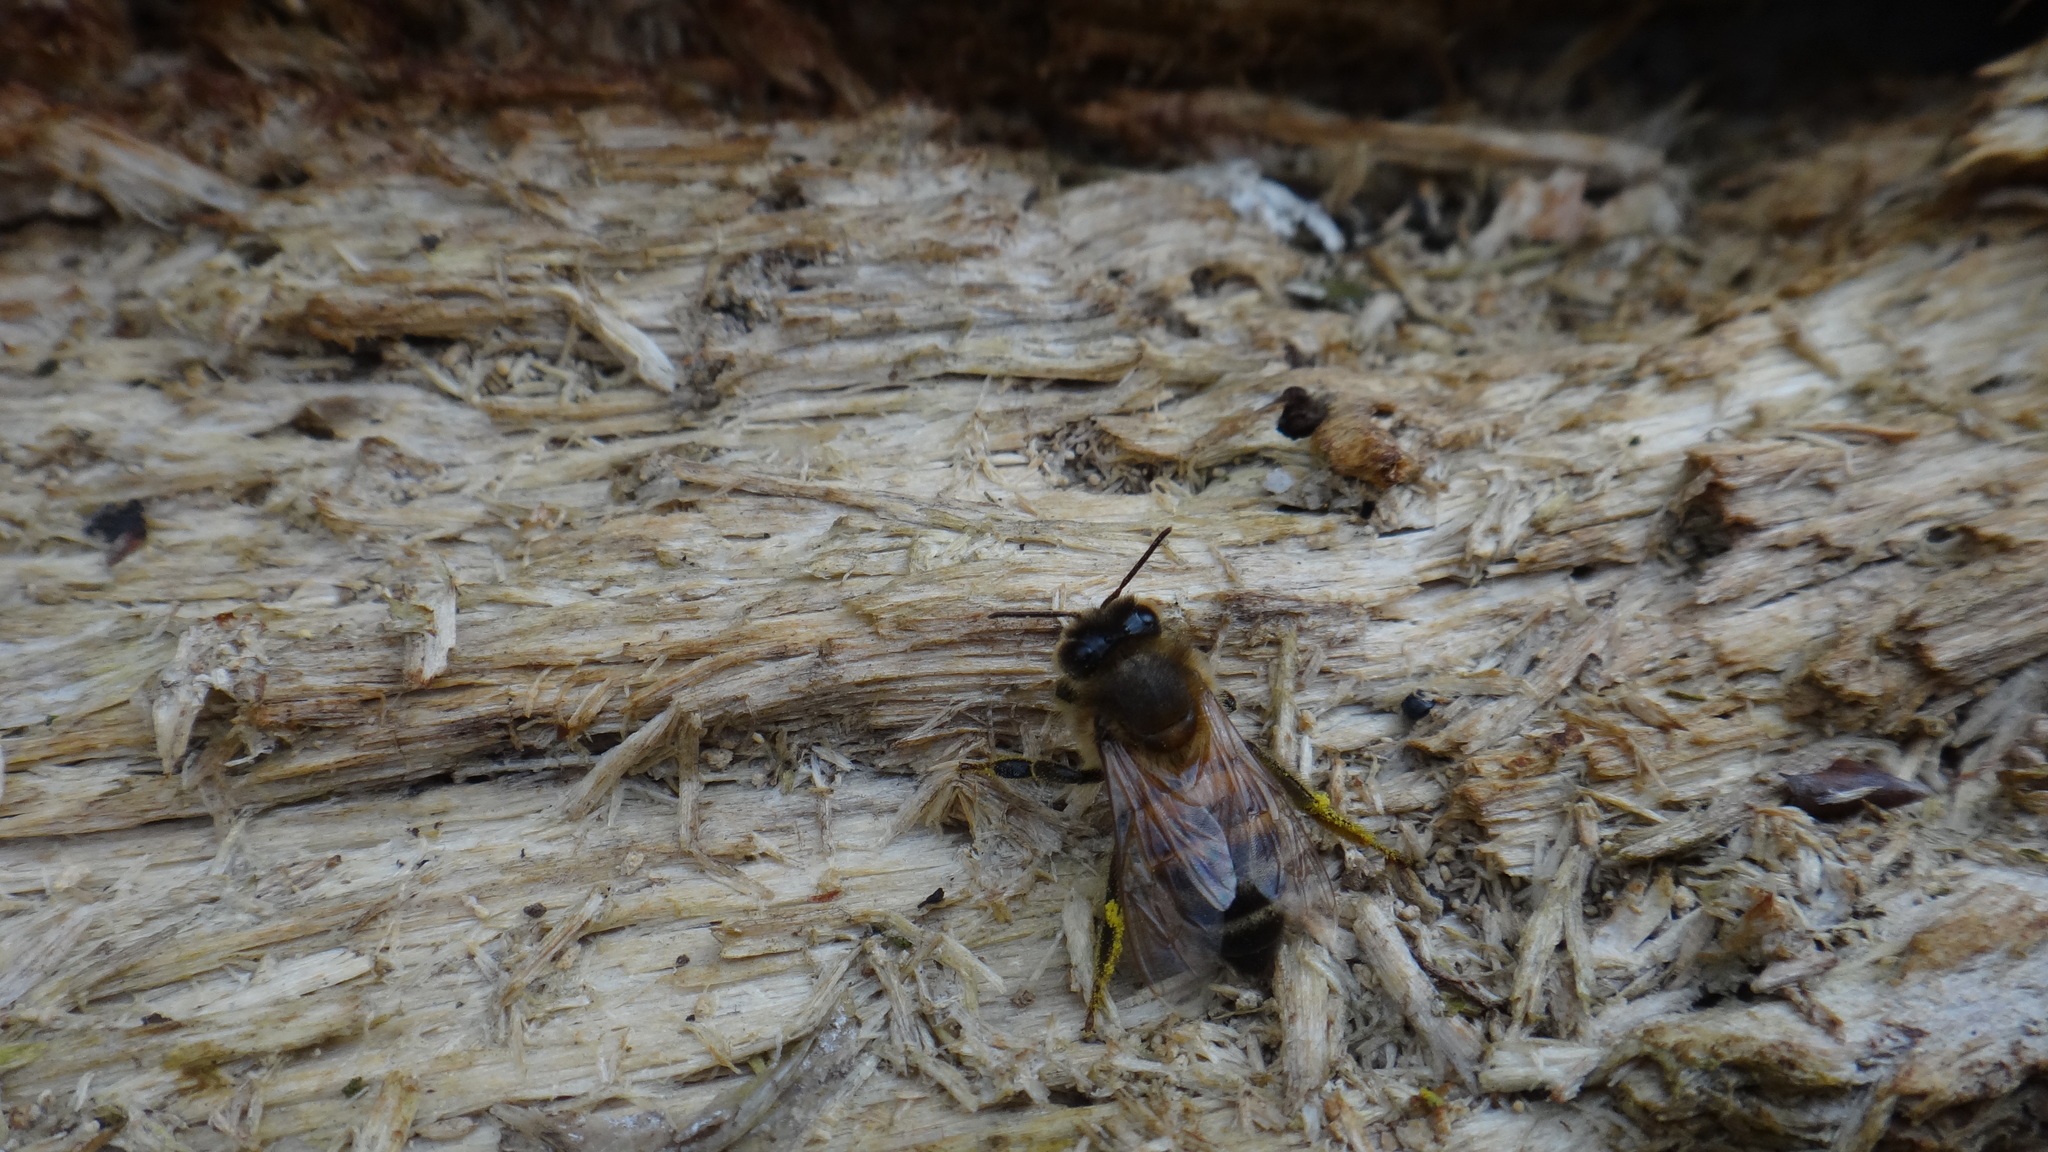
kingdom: Animalia
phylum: Arthropoda
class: Insecta
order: Hymenoptera
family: Apidae
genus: Apis
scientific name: Apis mellifera
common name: Honey bee
